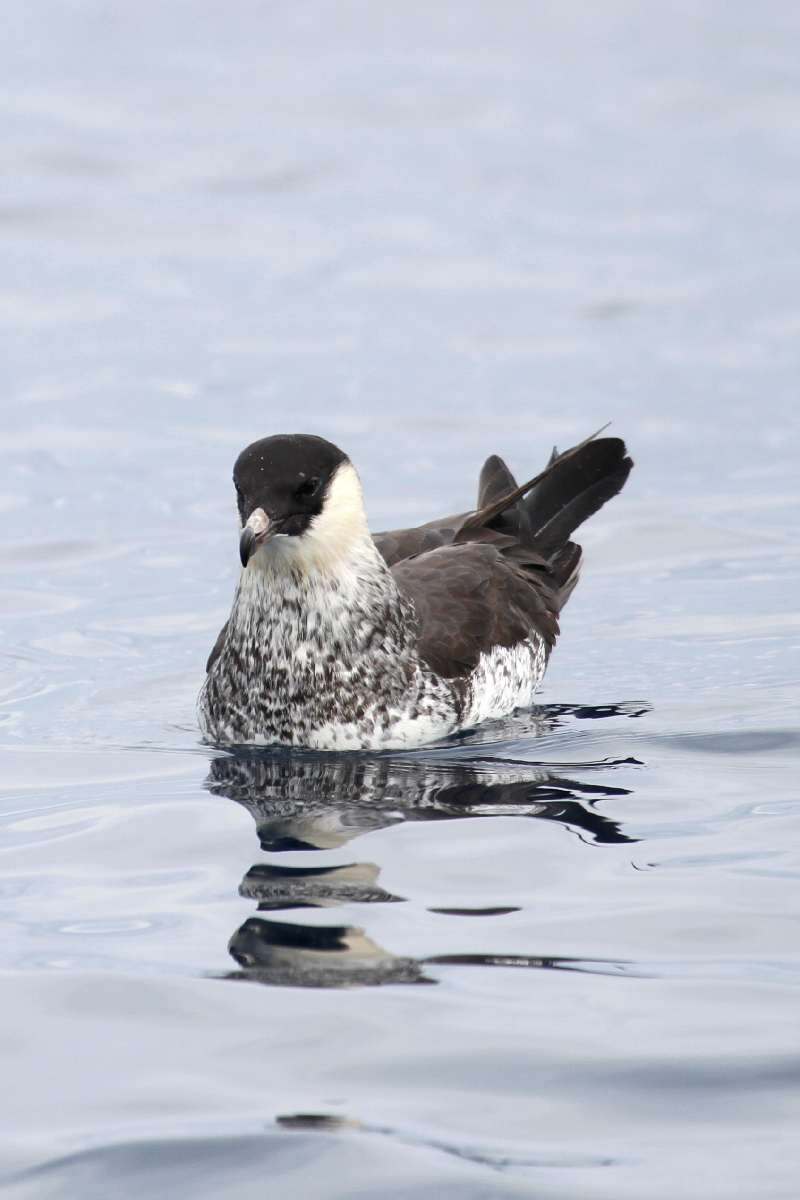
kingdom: Animalia
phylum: Chordata
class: Aves
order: Charadriiformes
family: Stercorariidae
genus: Stercorarius
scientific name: Stercorarius pomarinus
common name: Pomarine jaeger
